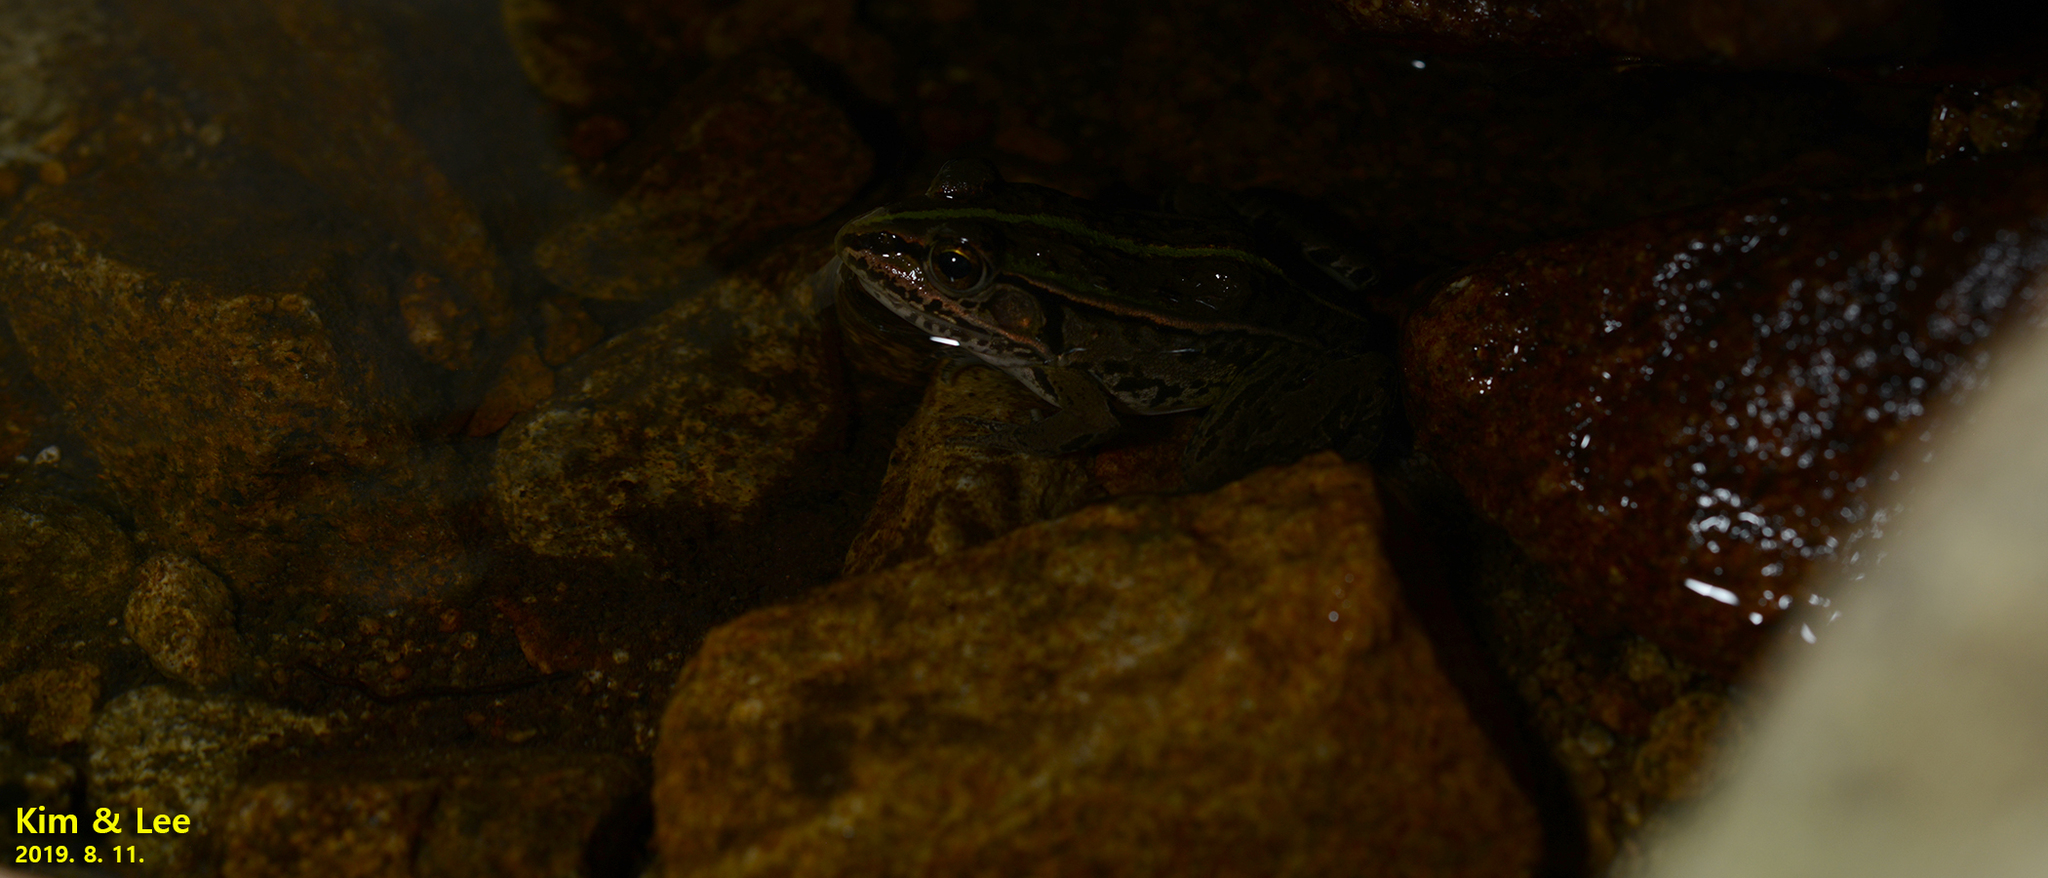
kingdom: Animalia
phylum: Chordata
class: Amphibia
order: Anura
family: Ranidae
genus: Pelophylax
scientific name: Pelophylax nigromaculatus
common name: Black-spotted pond frog
